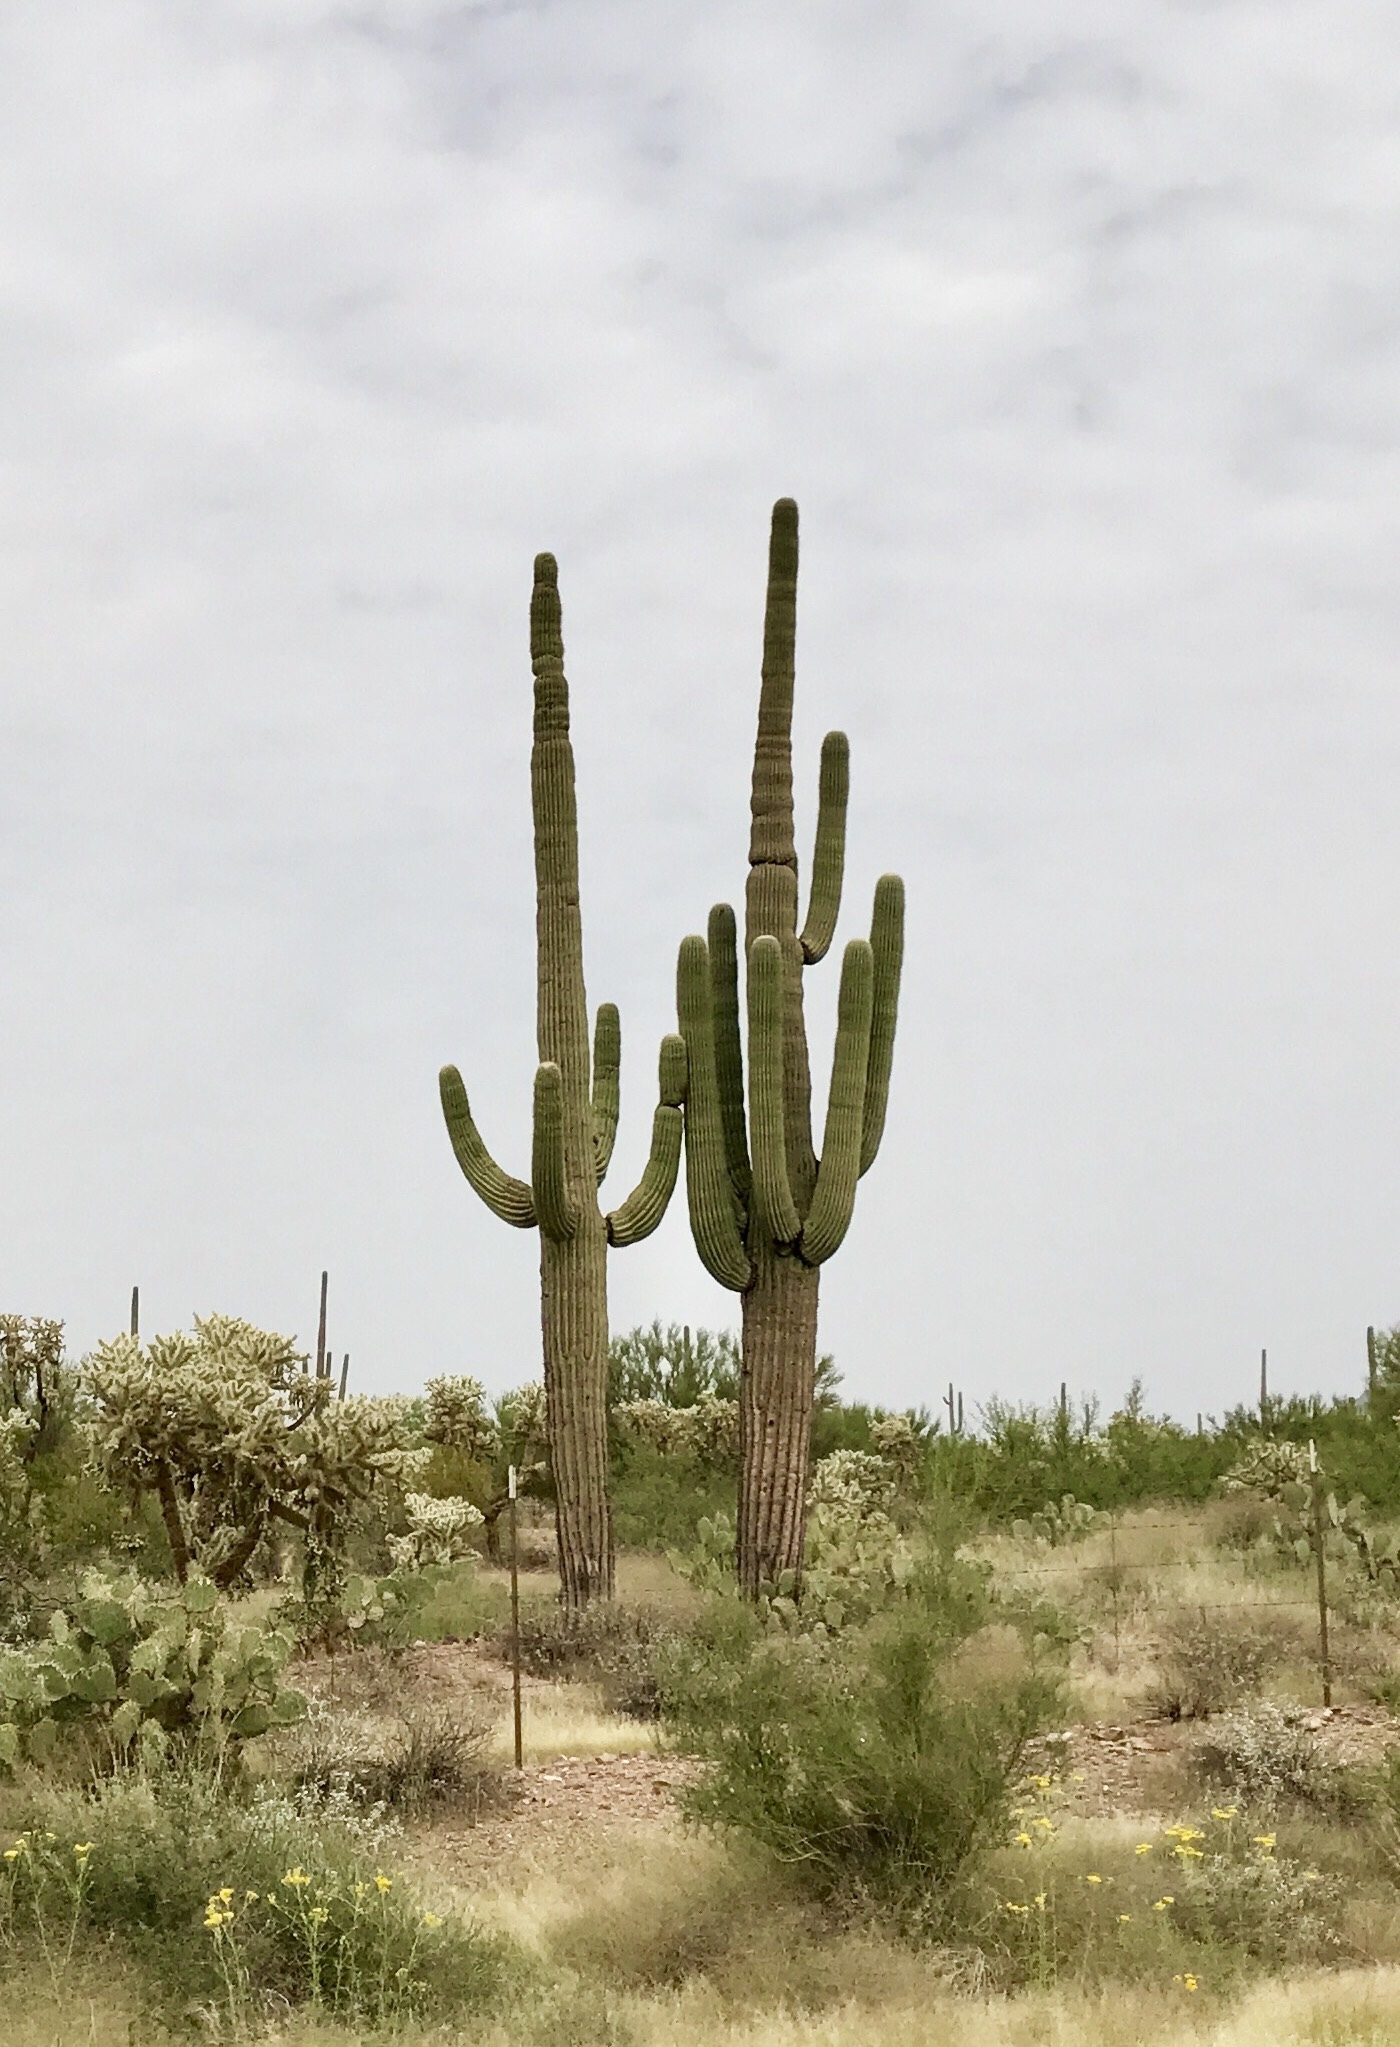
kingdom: Plantae
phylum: Tracheophyta
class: Magnoliopsida
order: Caryophyllales
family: Cactaceae
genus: Carnegiea
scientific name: Carnegiea gigantea
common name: Saguaro
